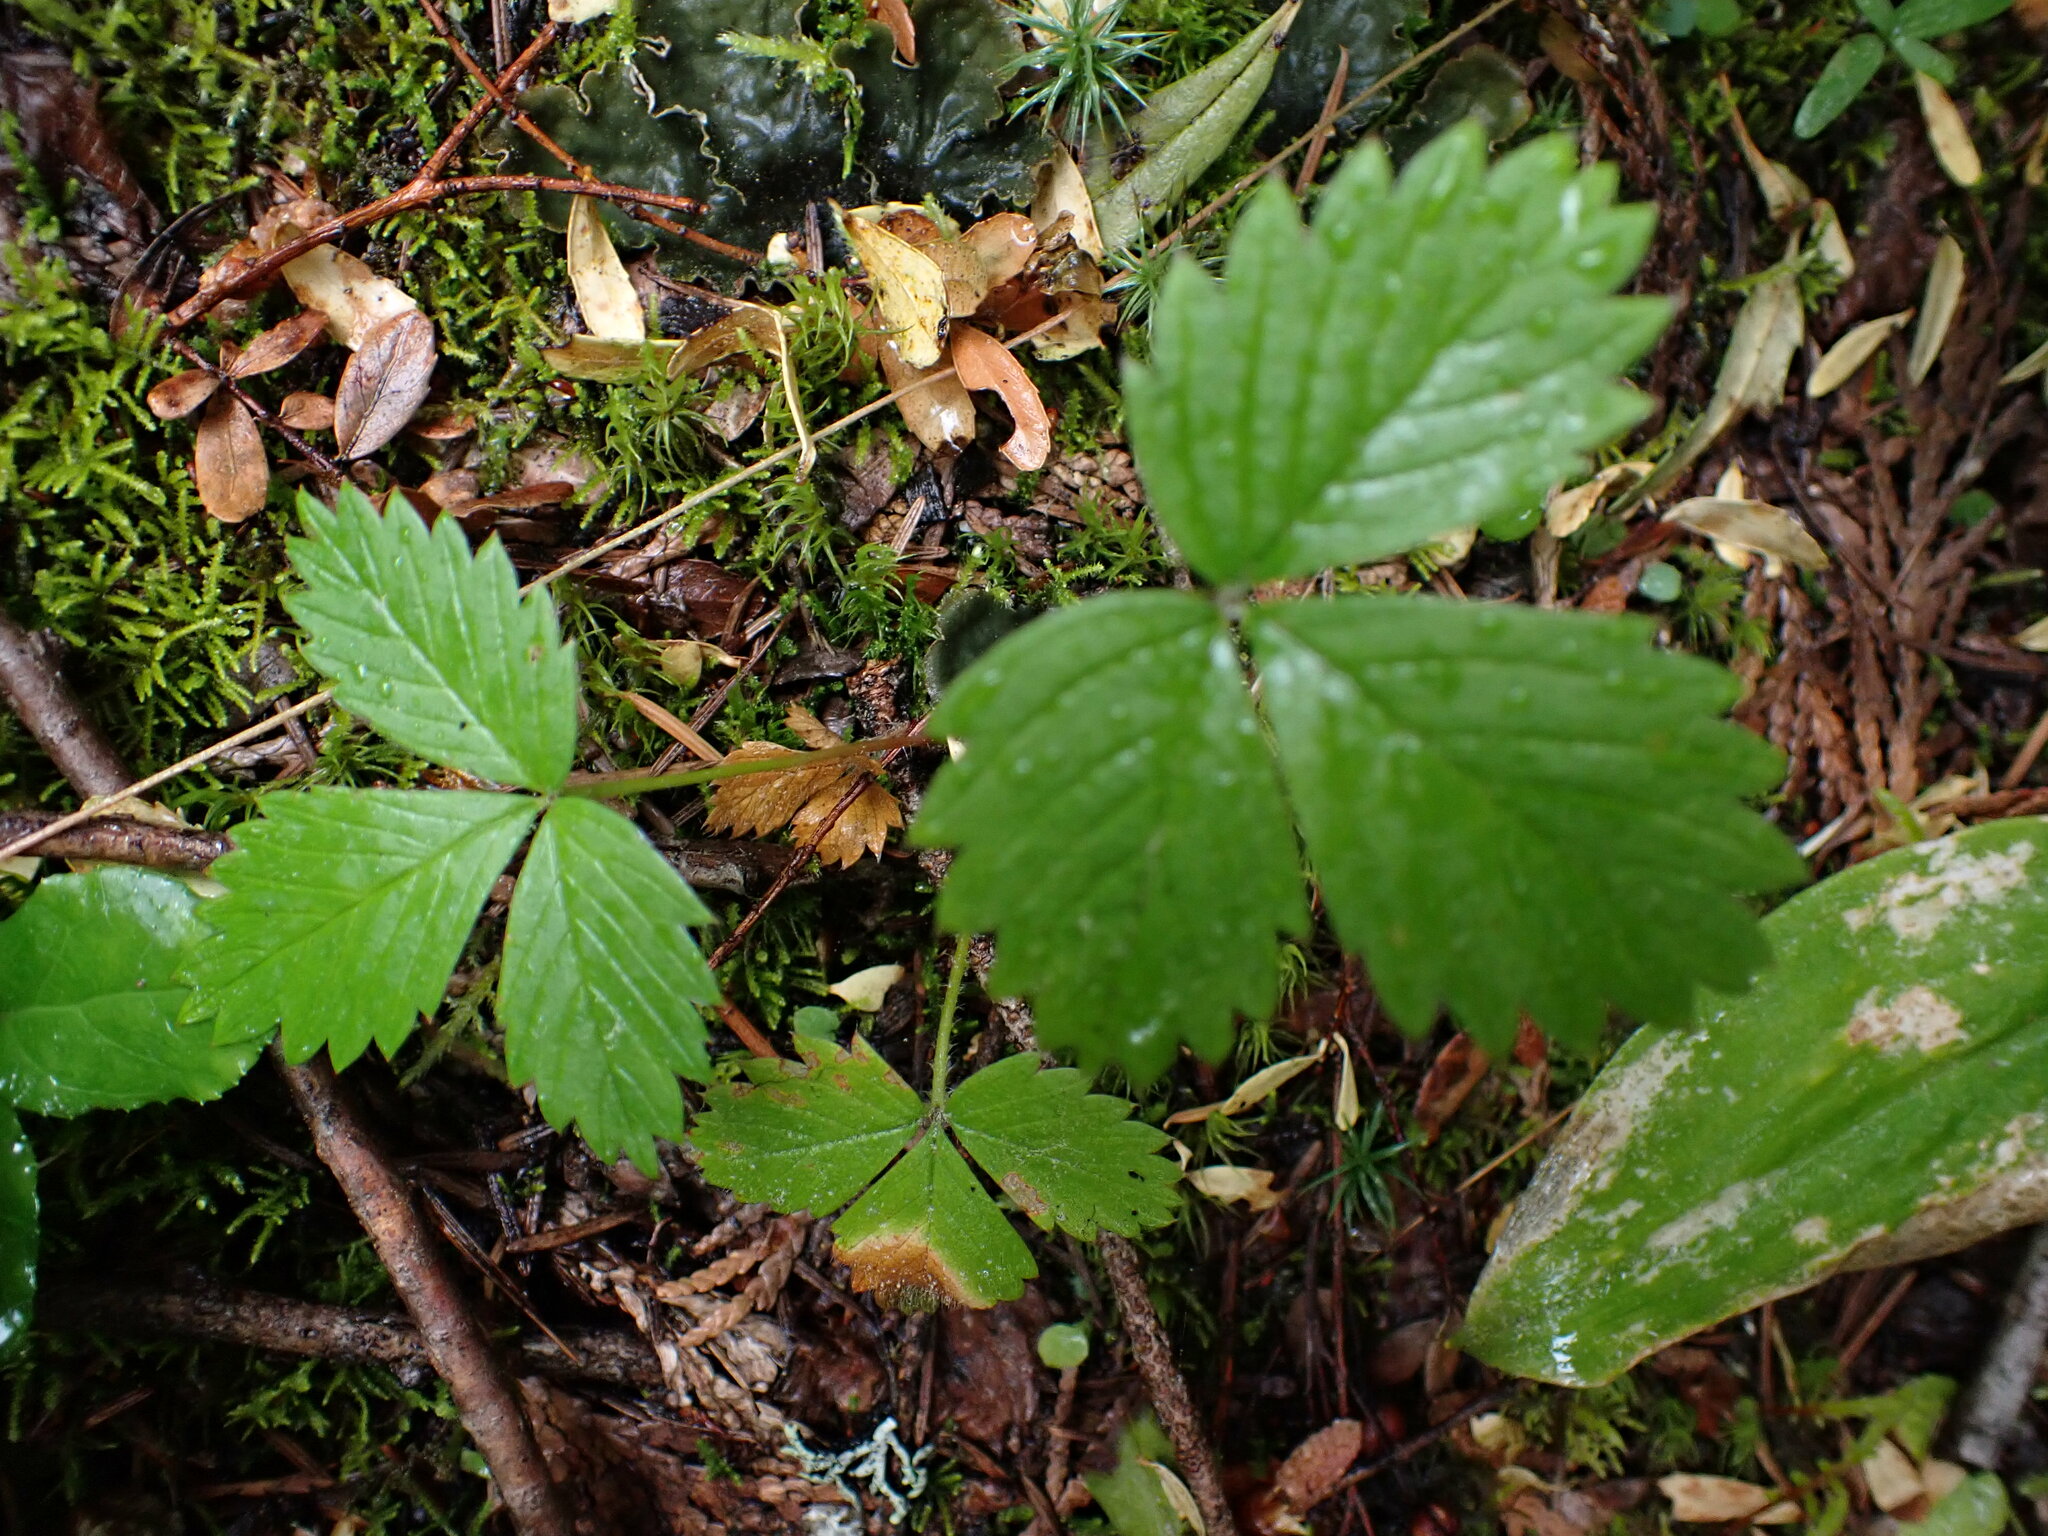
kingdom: Plantae
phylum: Tracheophyta
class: Magnoliopsida
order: Rosales
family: Rosaceae
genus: Fragaria
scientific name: Fragaria vesca
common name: Wild strawberry
